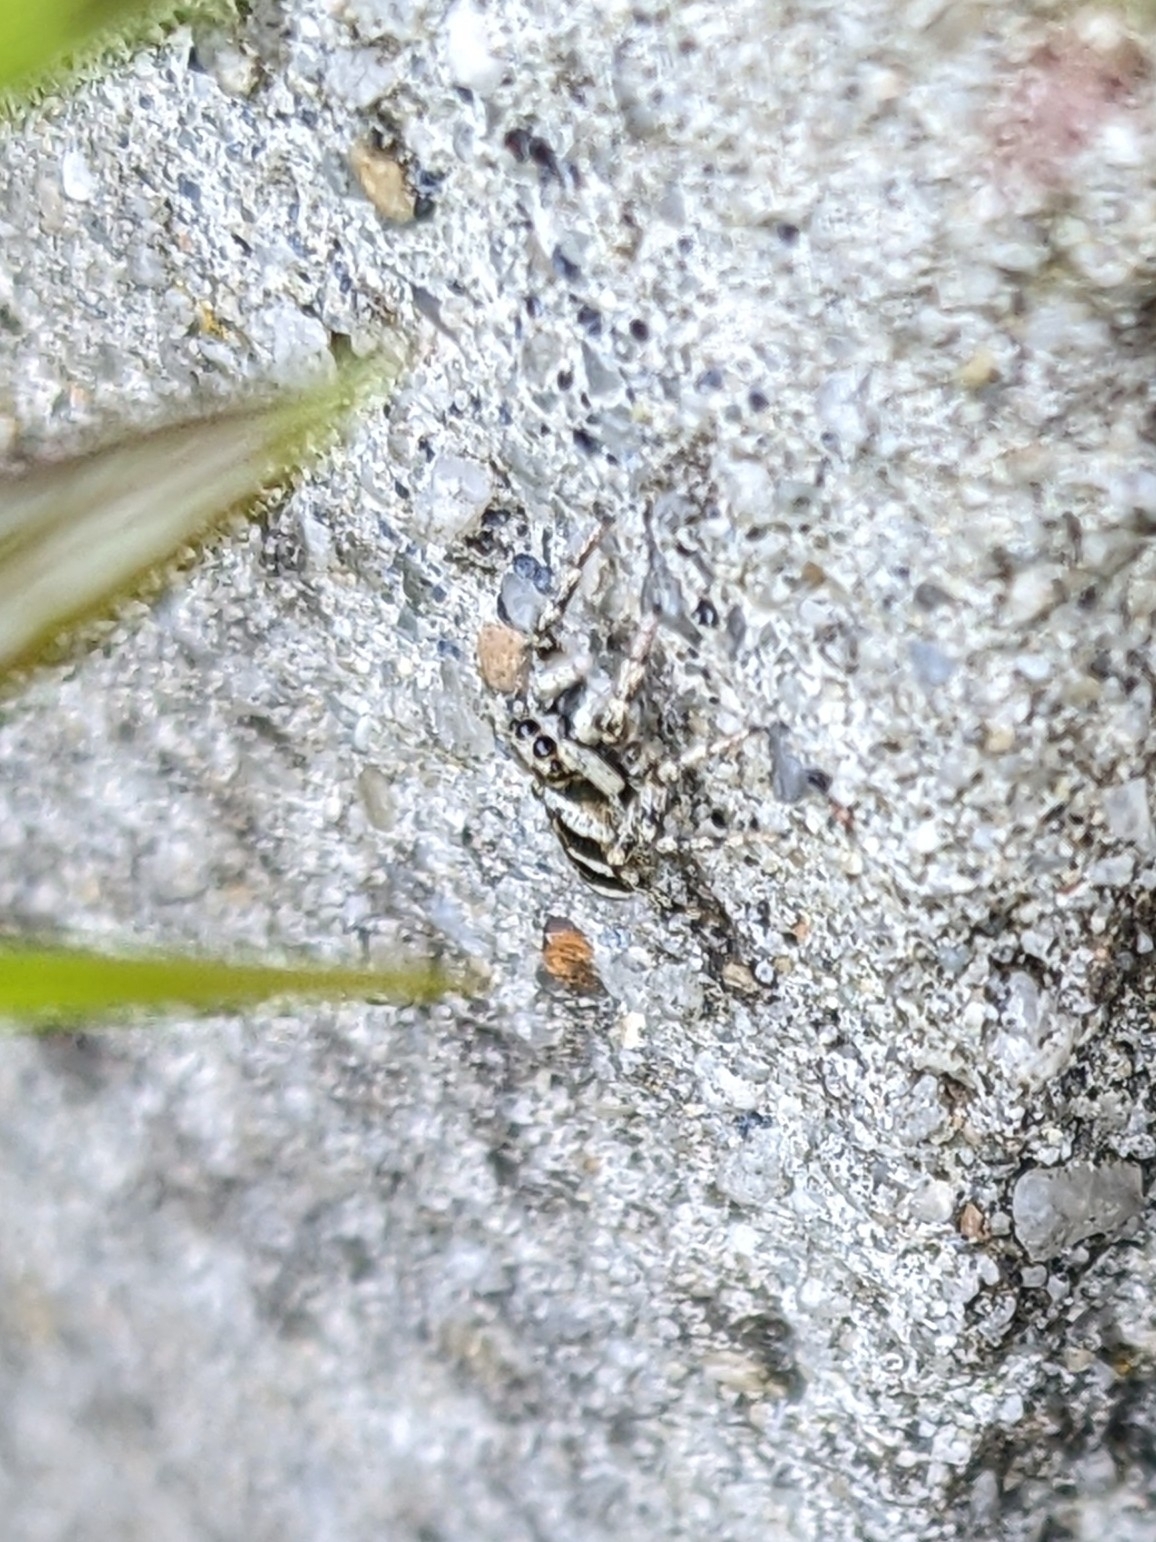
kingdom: Animalia
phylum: Arthropoda
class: Arachnida
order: Araneae
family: Salticidae
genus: Salticus
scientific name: Salticus scenicus
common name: Zebra jumper
